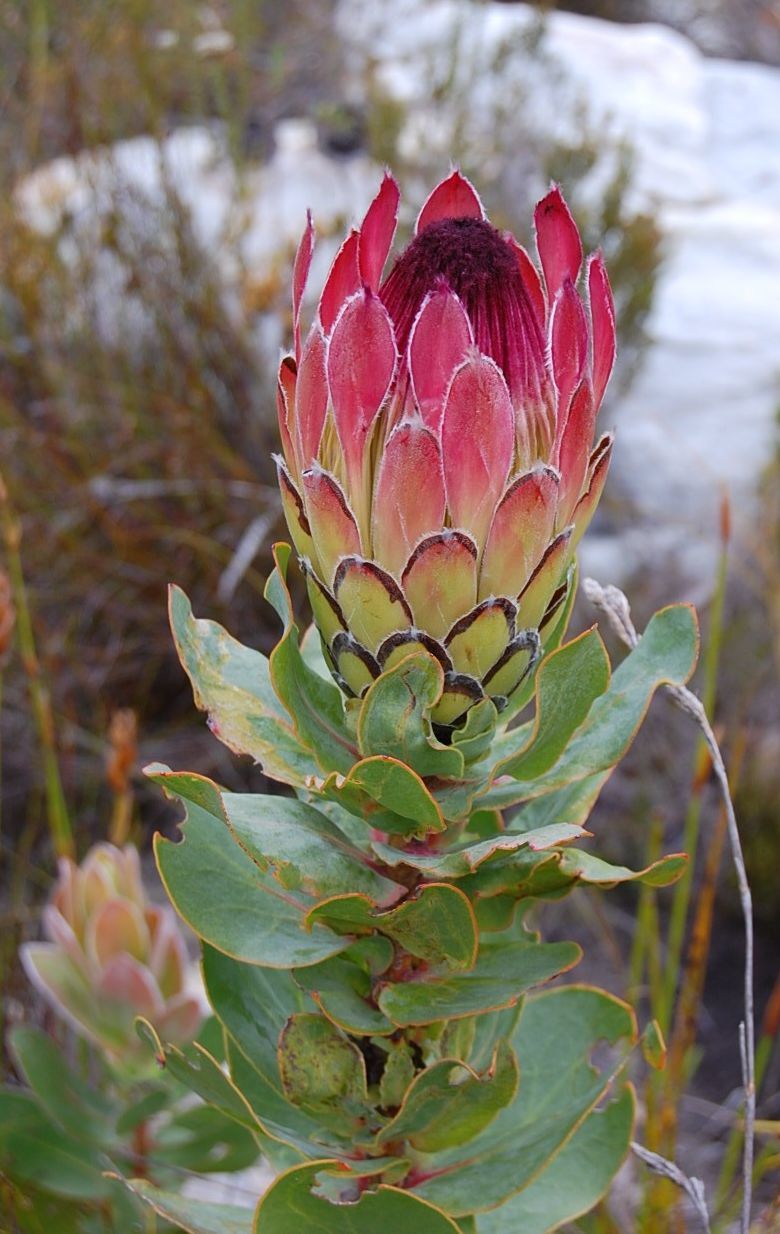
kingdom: Plantae
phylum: Tracheophyta
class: Magnoliopsida
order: Proteales
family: Proteaceae
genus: Protea
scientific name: Protea eximia
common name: Broad-leaved sugarbush
